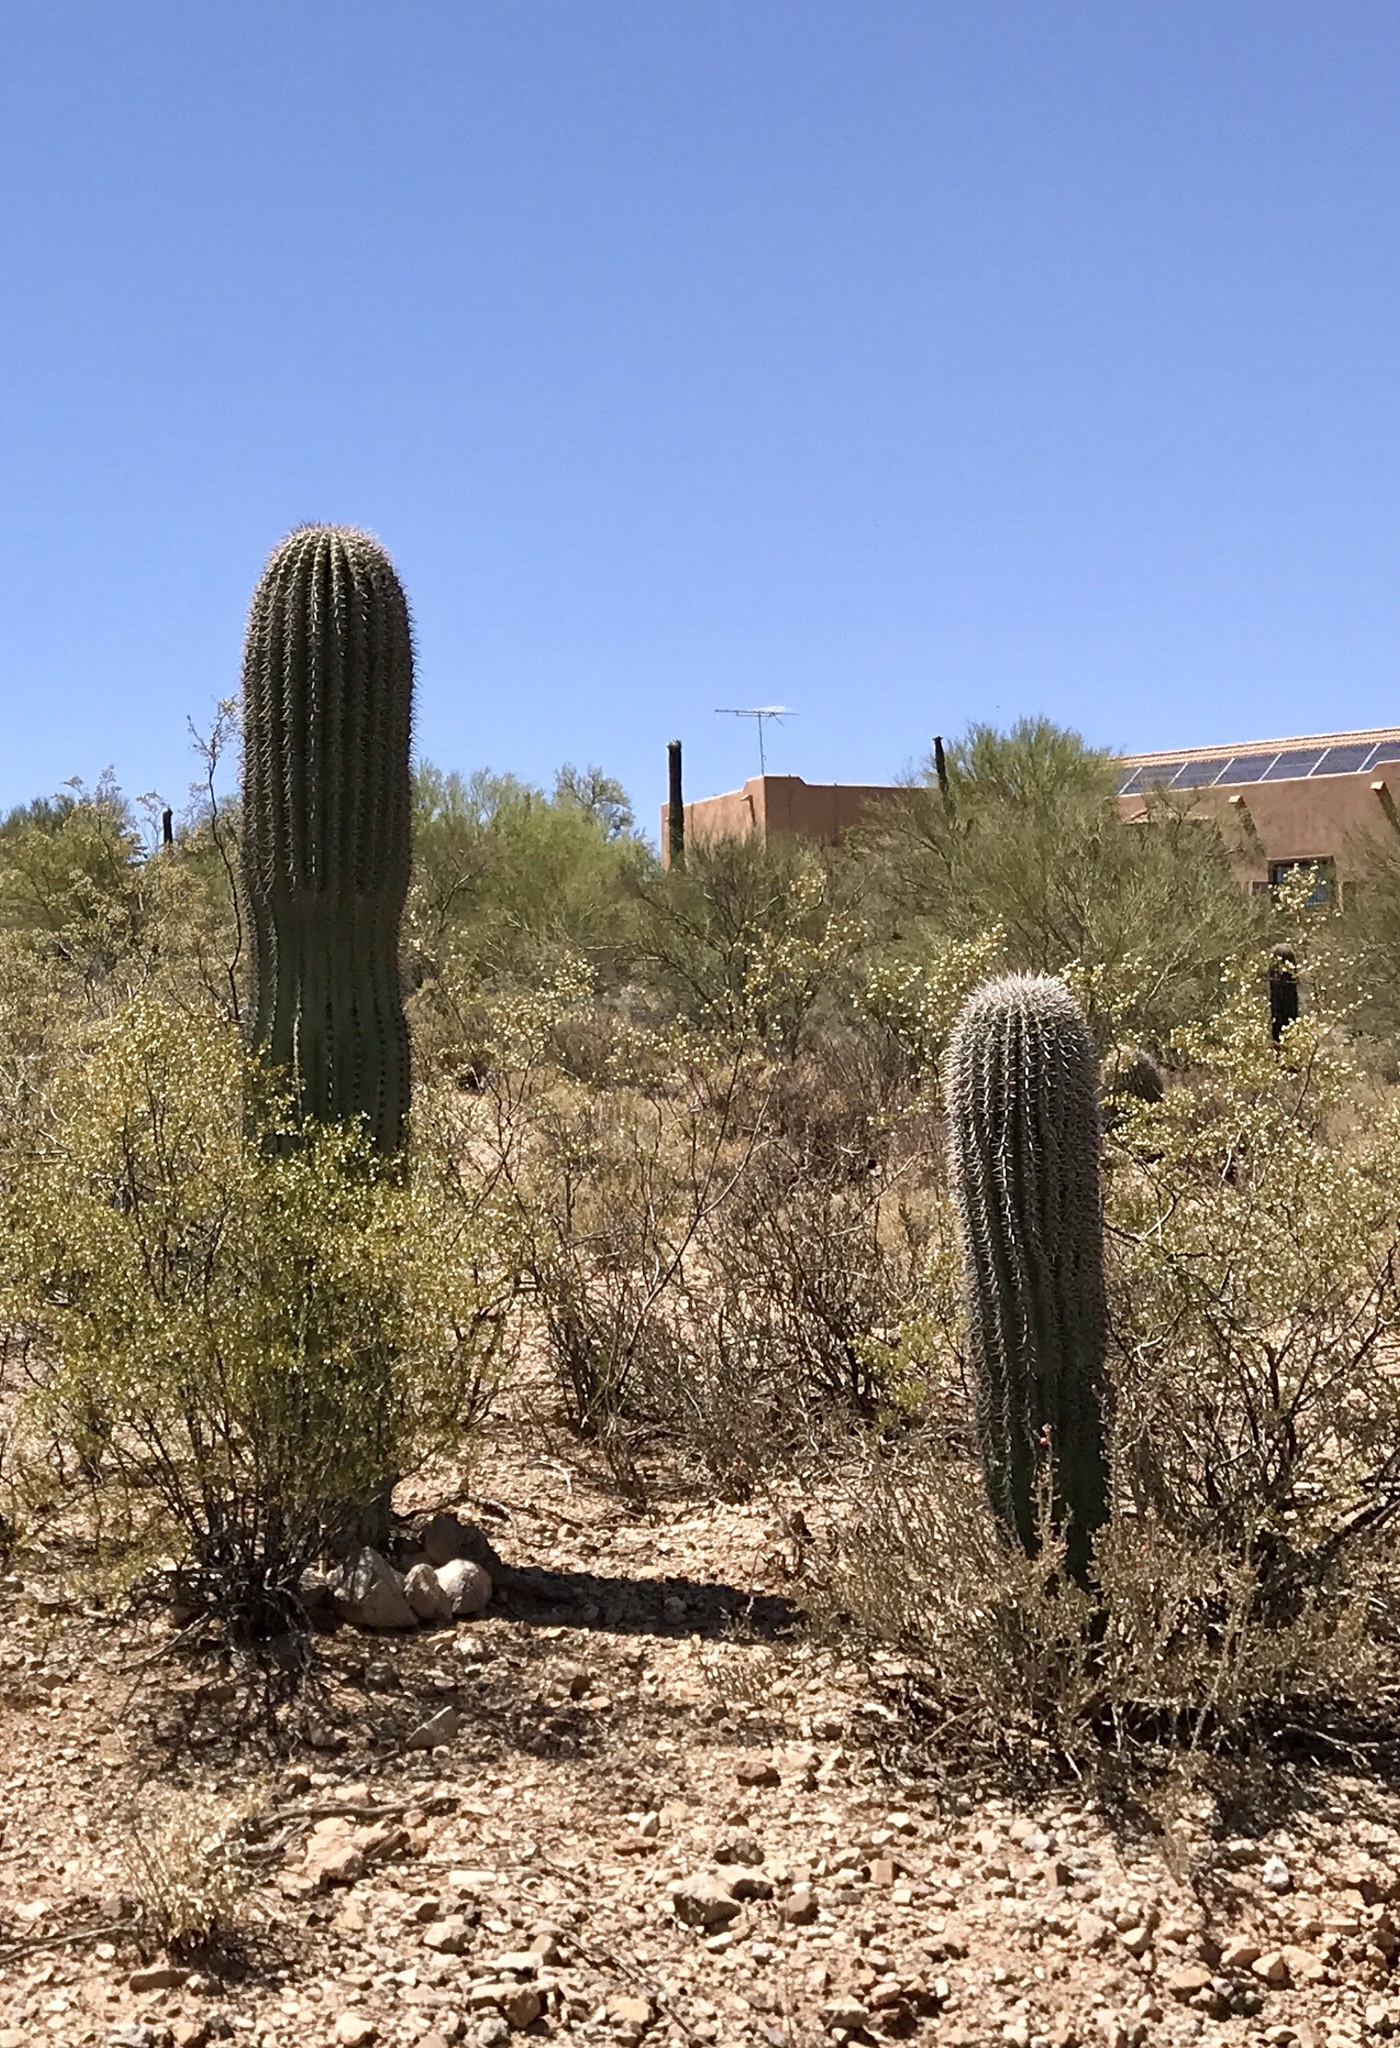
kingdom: Plantae
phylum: Tracheophyta
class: Magnoliopsida
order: Caryophyllales
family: Cactaceae
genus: Carnegiea
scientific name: Carnegiea gigantea
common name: Saguaro
